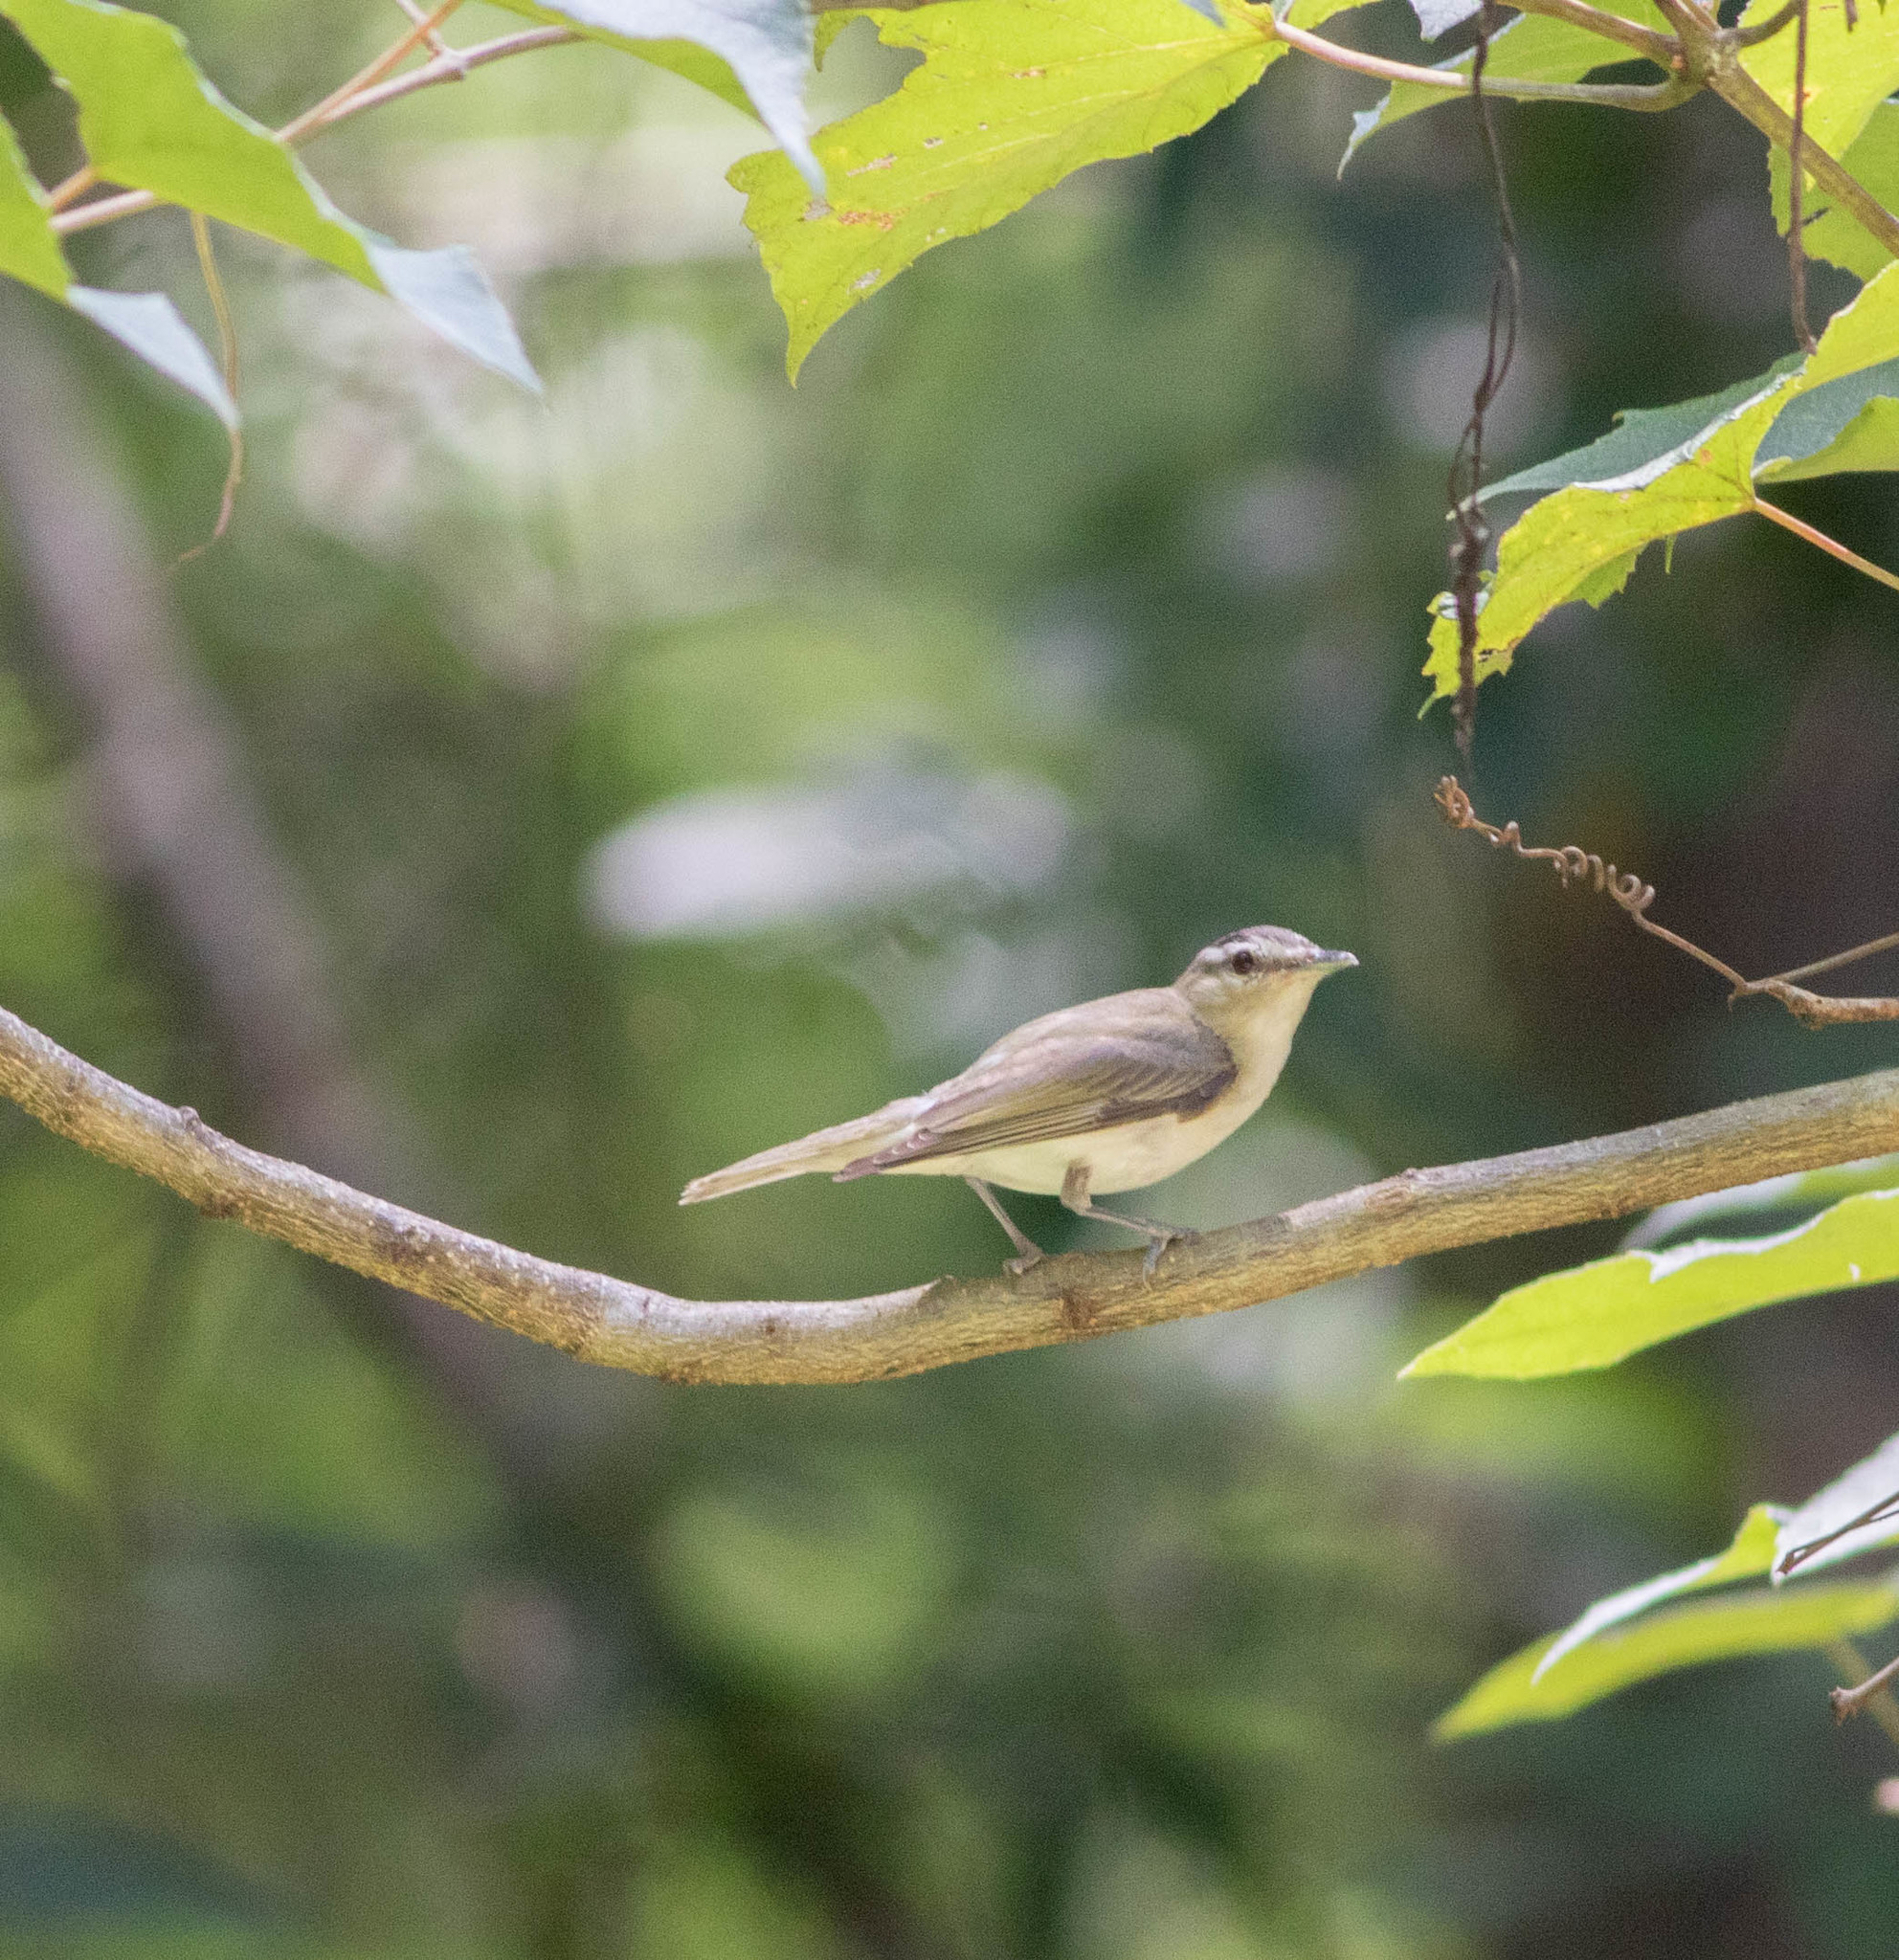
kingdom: Animalia
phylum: Chordata
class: Aves
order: Passeriformes
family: Vireonidae
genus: Vireo
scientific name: Vireo olivaceus
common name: Red-eyed vireo
